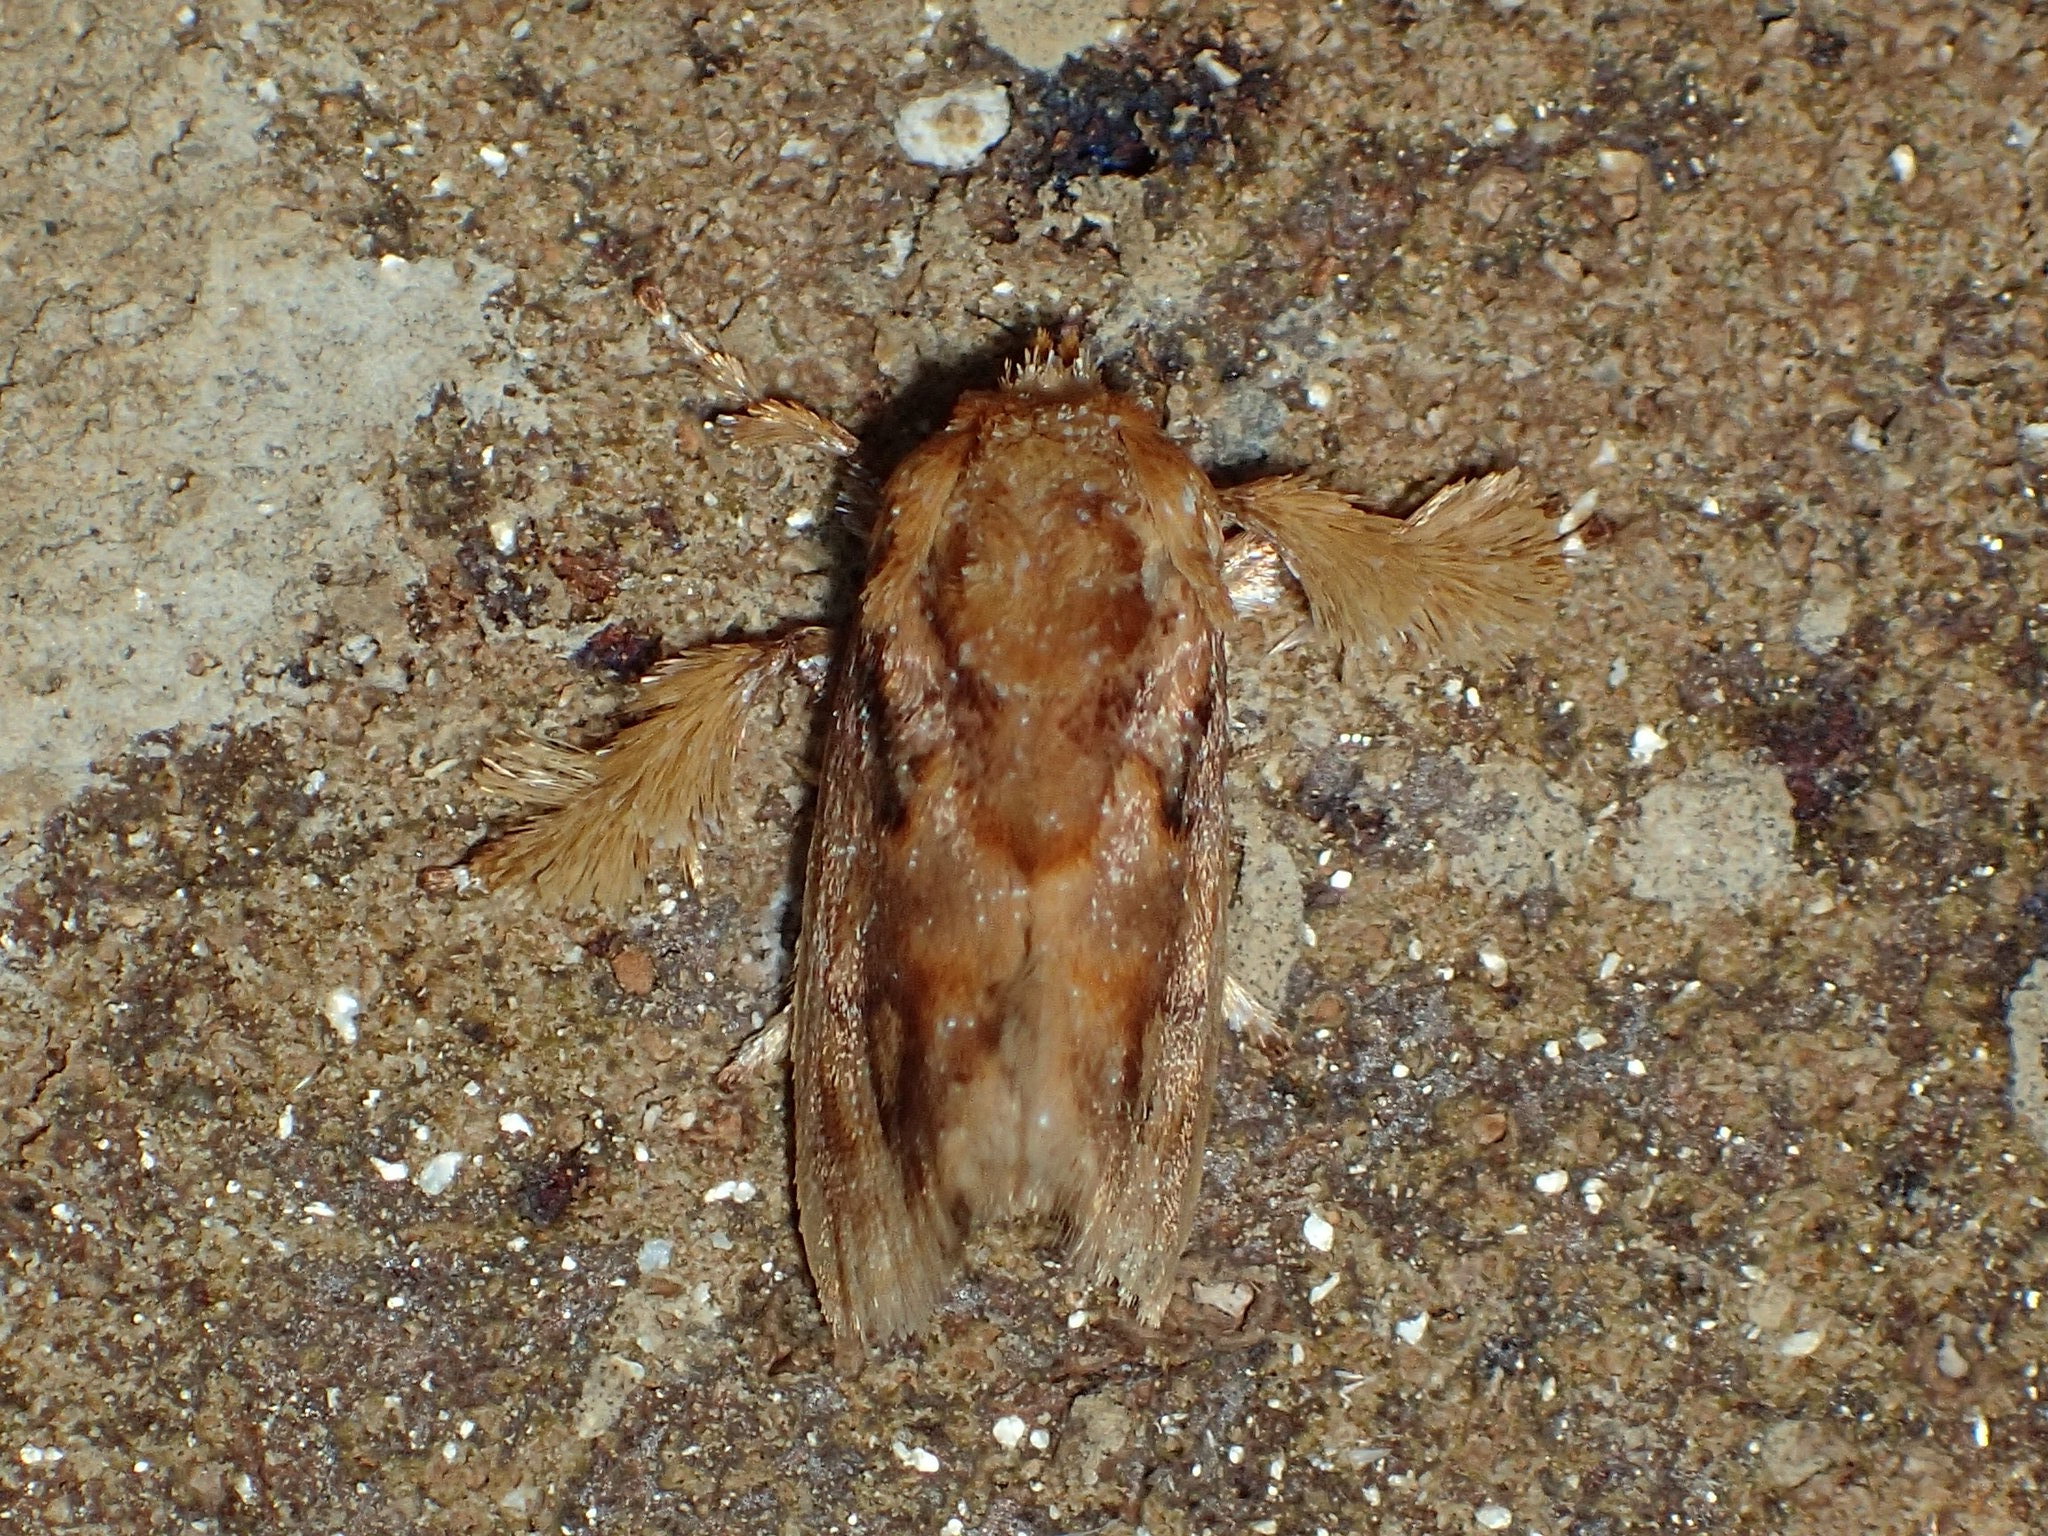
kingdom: Animalia
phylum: Arthropoda
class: Insecta
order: Lepidoptera
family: Limacodidae
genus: Isochaetes
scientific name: Isochaetes beutenmuelleri
